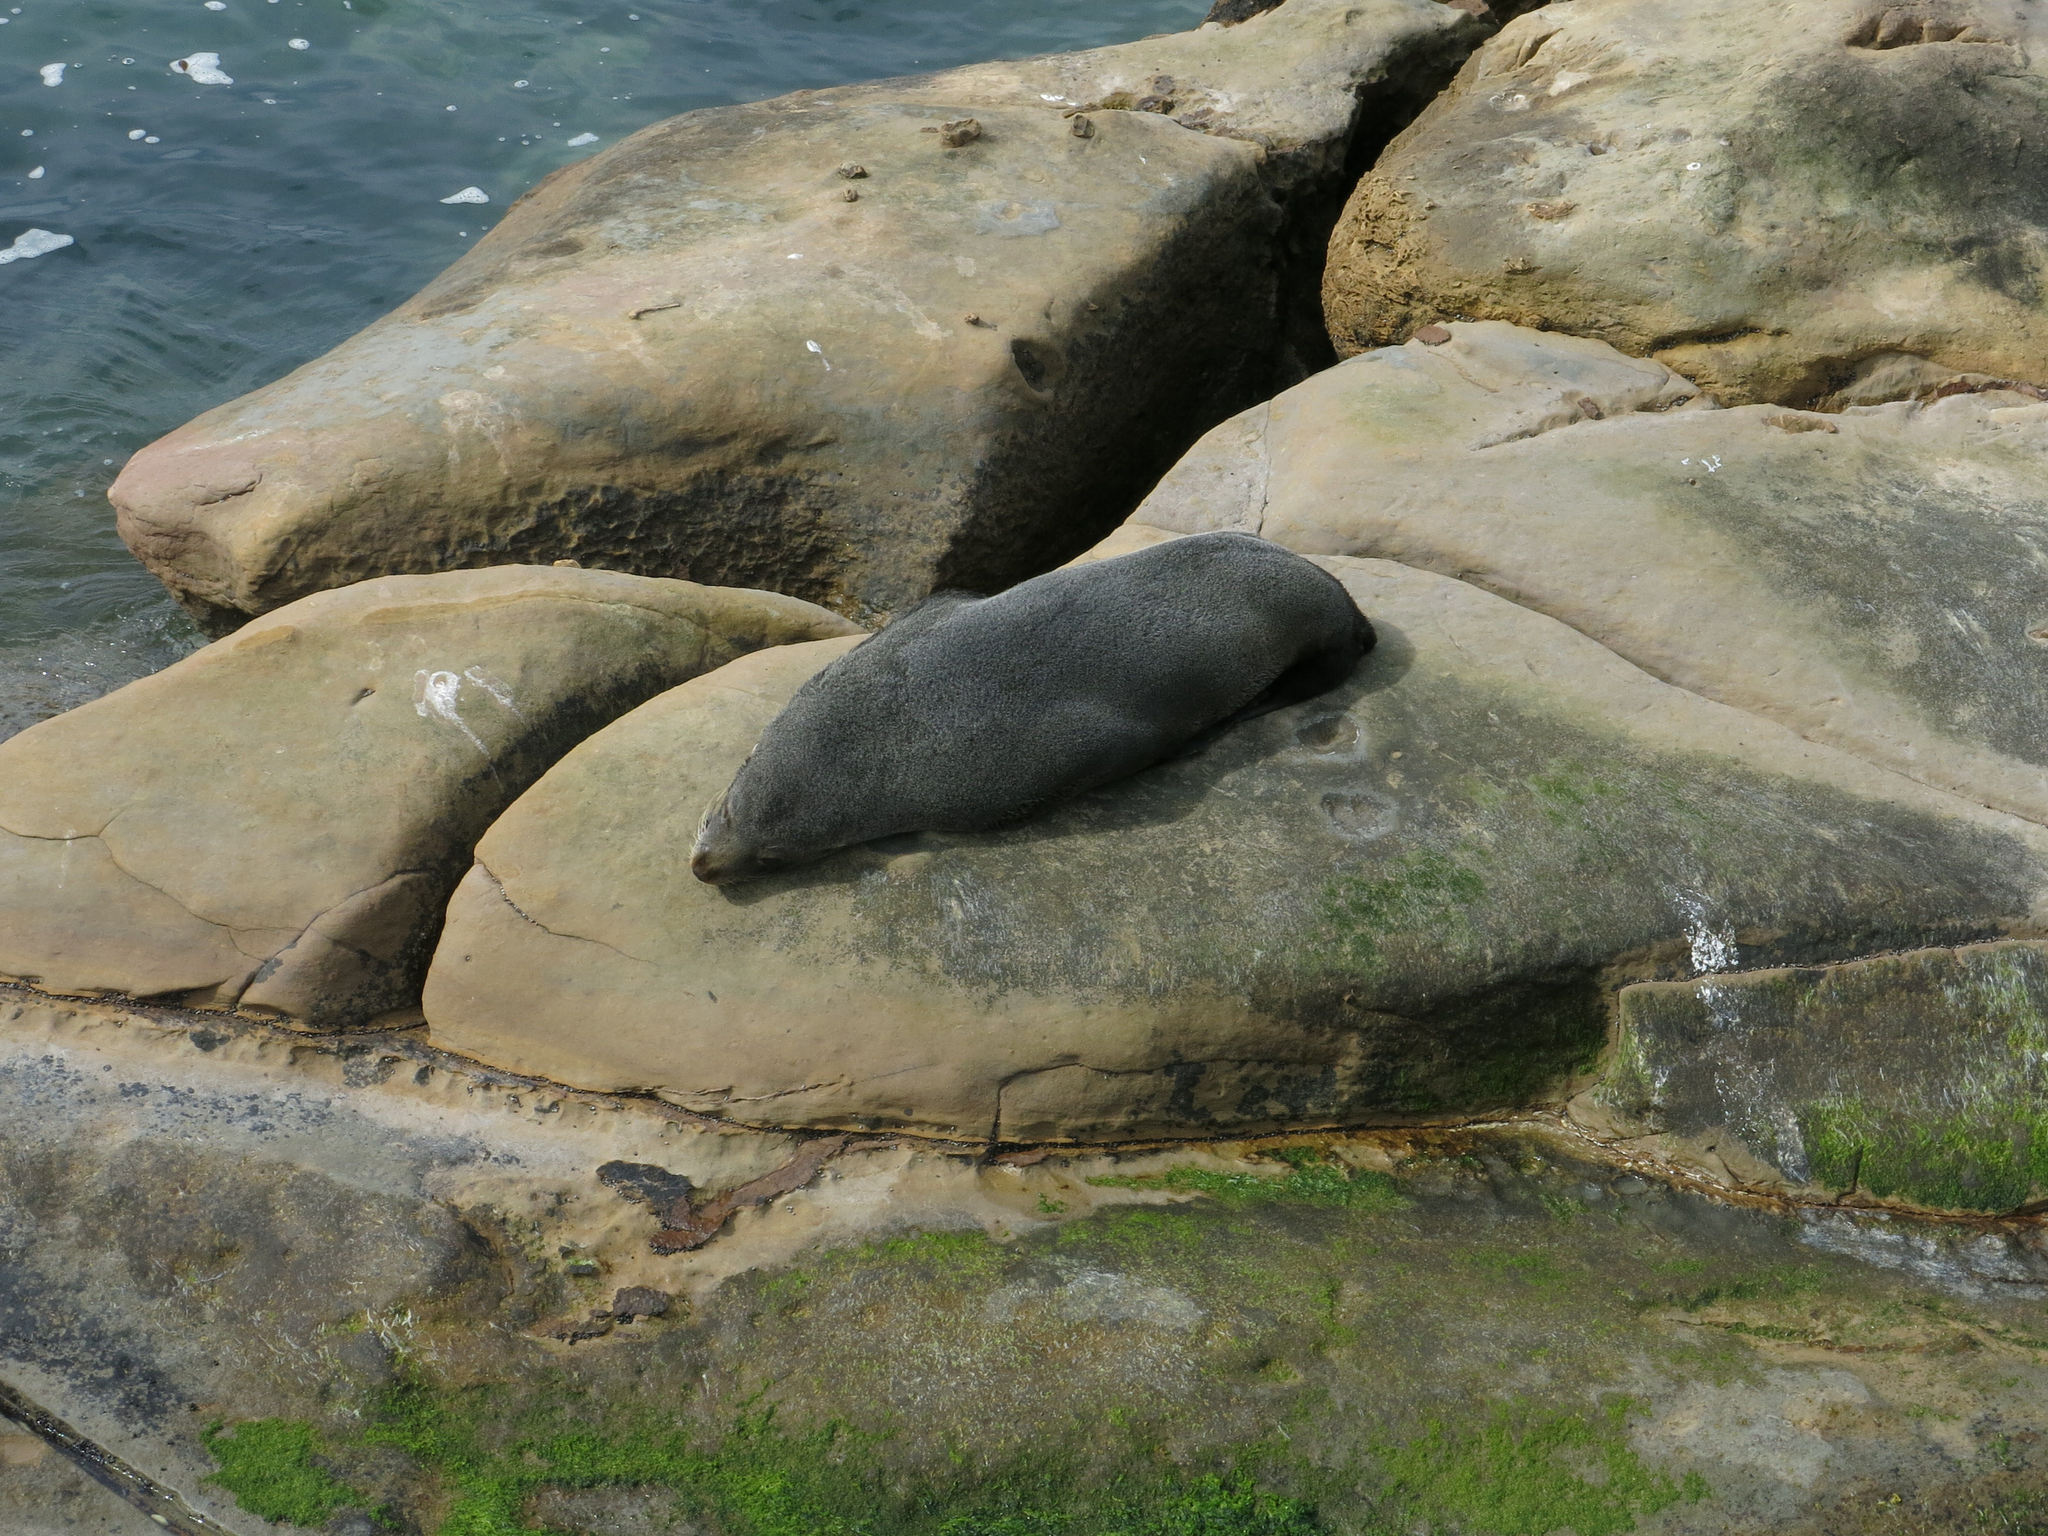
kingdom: Animalia
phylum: Chordata
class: Mammalia
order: Carnivora
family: Otariidae
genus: Arctocephalus
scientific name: Arctocephalus forsteri
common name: New zealand fur seal
